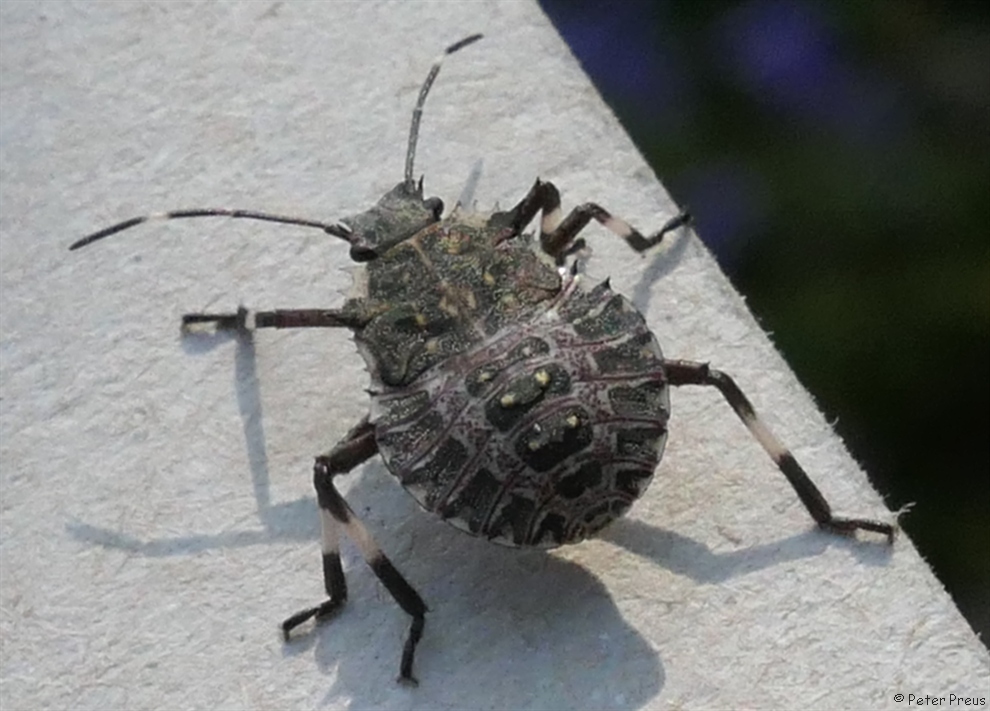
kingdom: Animalia
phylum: Arthropoda
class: Insecta
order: Hemiptera
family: Pentatomidae
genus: Halyomorpha
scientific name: Halyomorpha halys
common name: Brown marmorated stink bug
